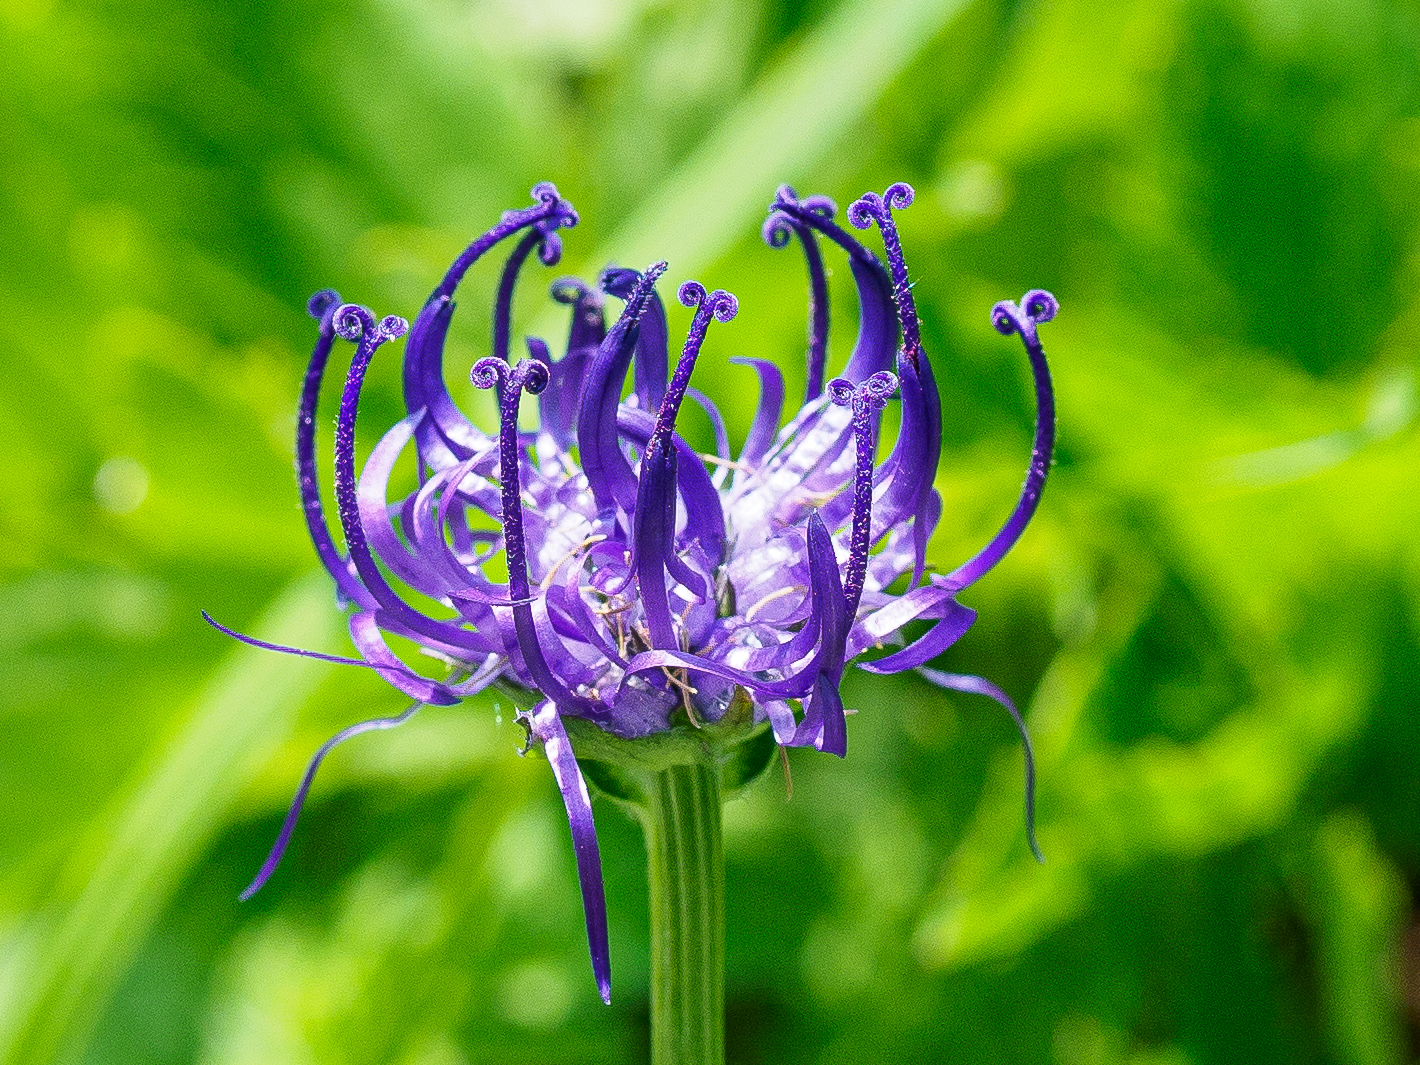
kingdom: Plantae
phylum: Tracheophyta
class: Magnoliopsida
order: Asterales
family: Campanulaceae
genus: Phyteuma
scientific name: Phyteuma orbiculare
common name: Round-headed rampion
